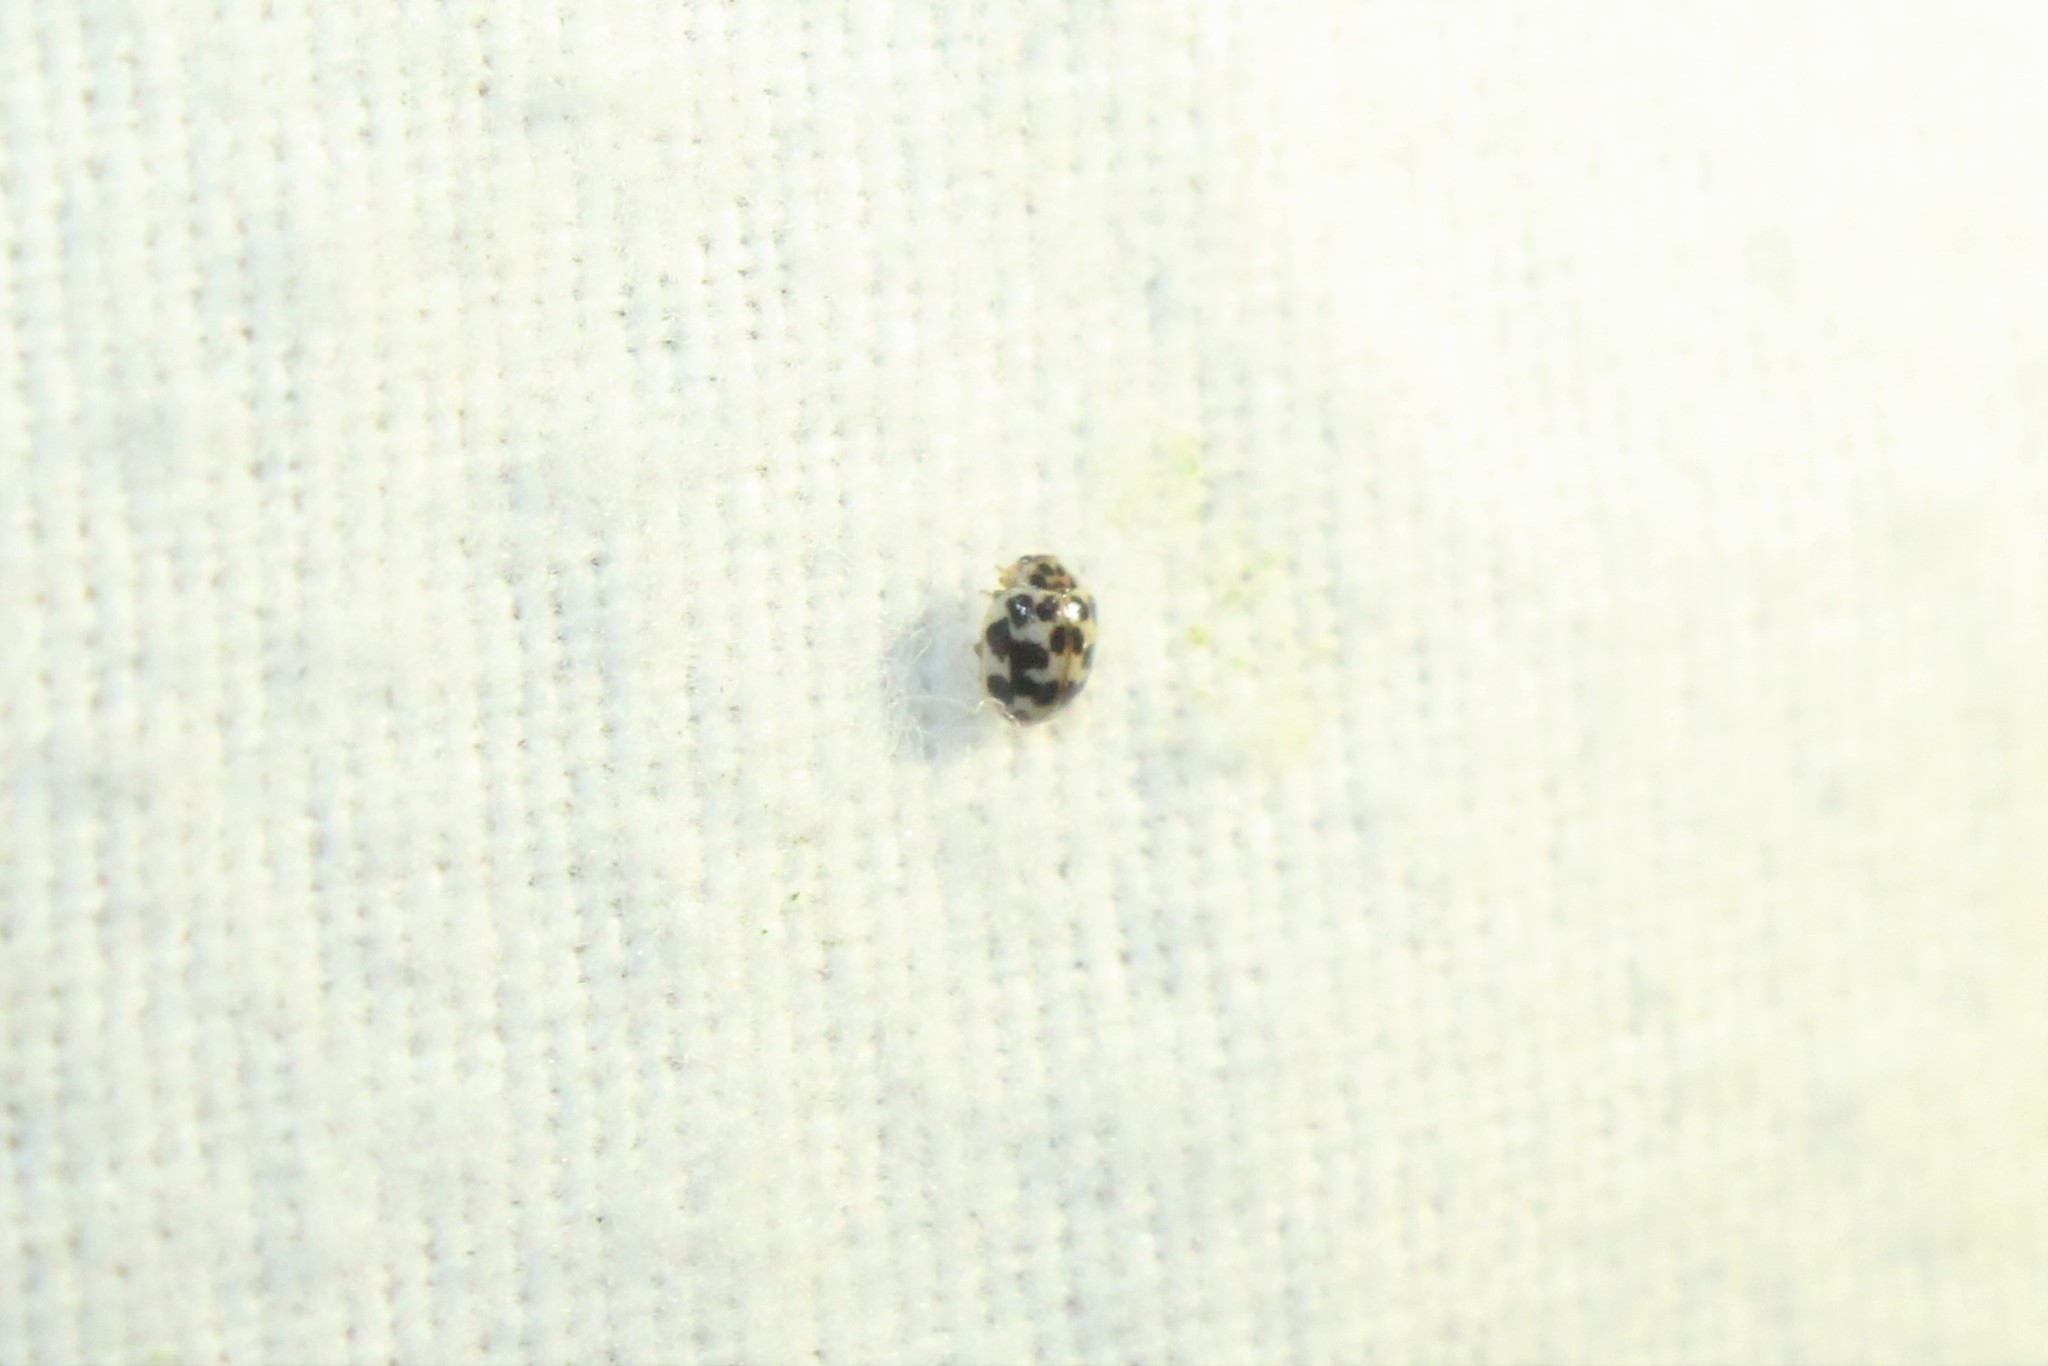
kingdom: Animalia
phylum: Arthropoda
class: Insecta
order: Coleoptera
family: Coccinellidae
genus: Psyllobora
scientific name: Psyllobora vigintimaculata
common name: Ladybird beetle
